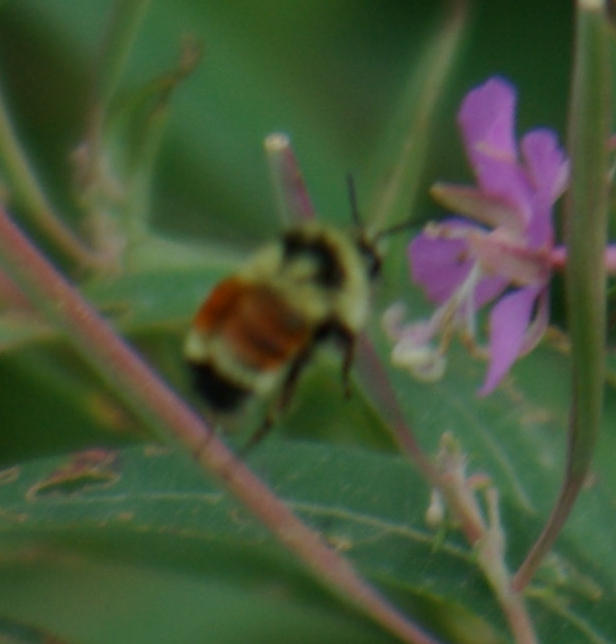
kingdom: Animalia
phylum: Arthropoda
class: Insecta
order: Hymenoptera
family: Apidae
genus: Bombus
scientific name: Bombus ternarius
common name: Tri-colored bumble bee
